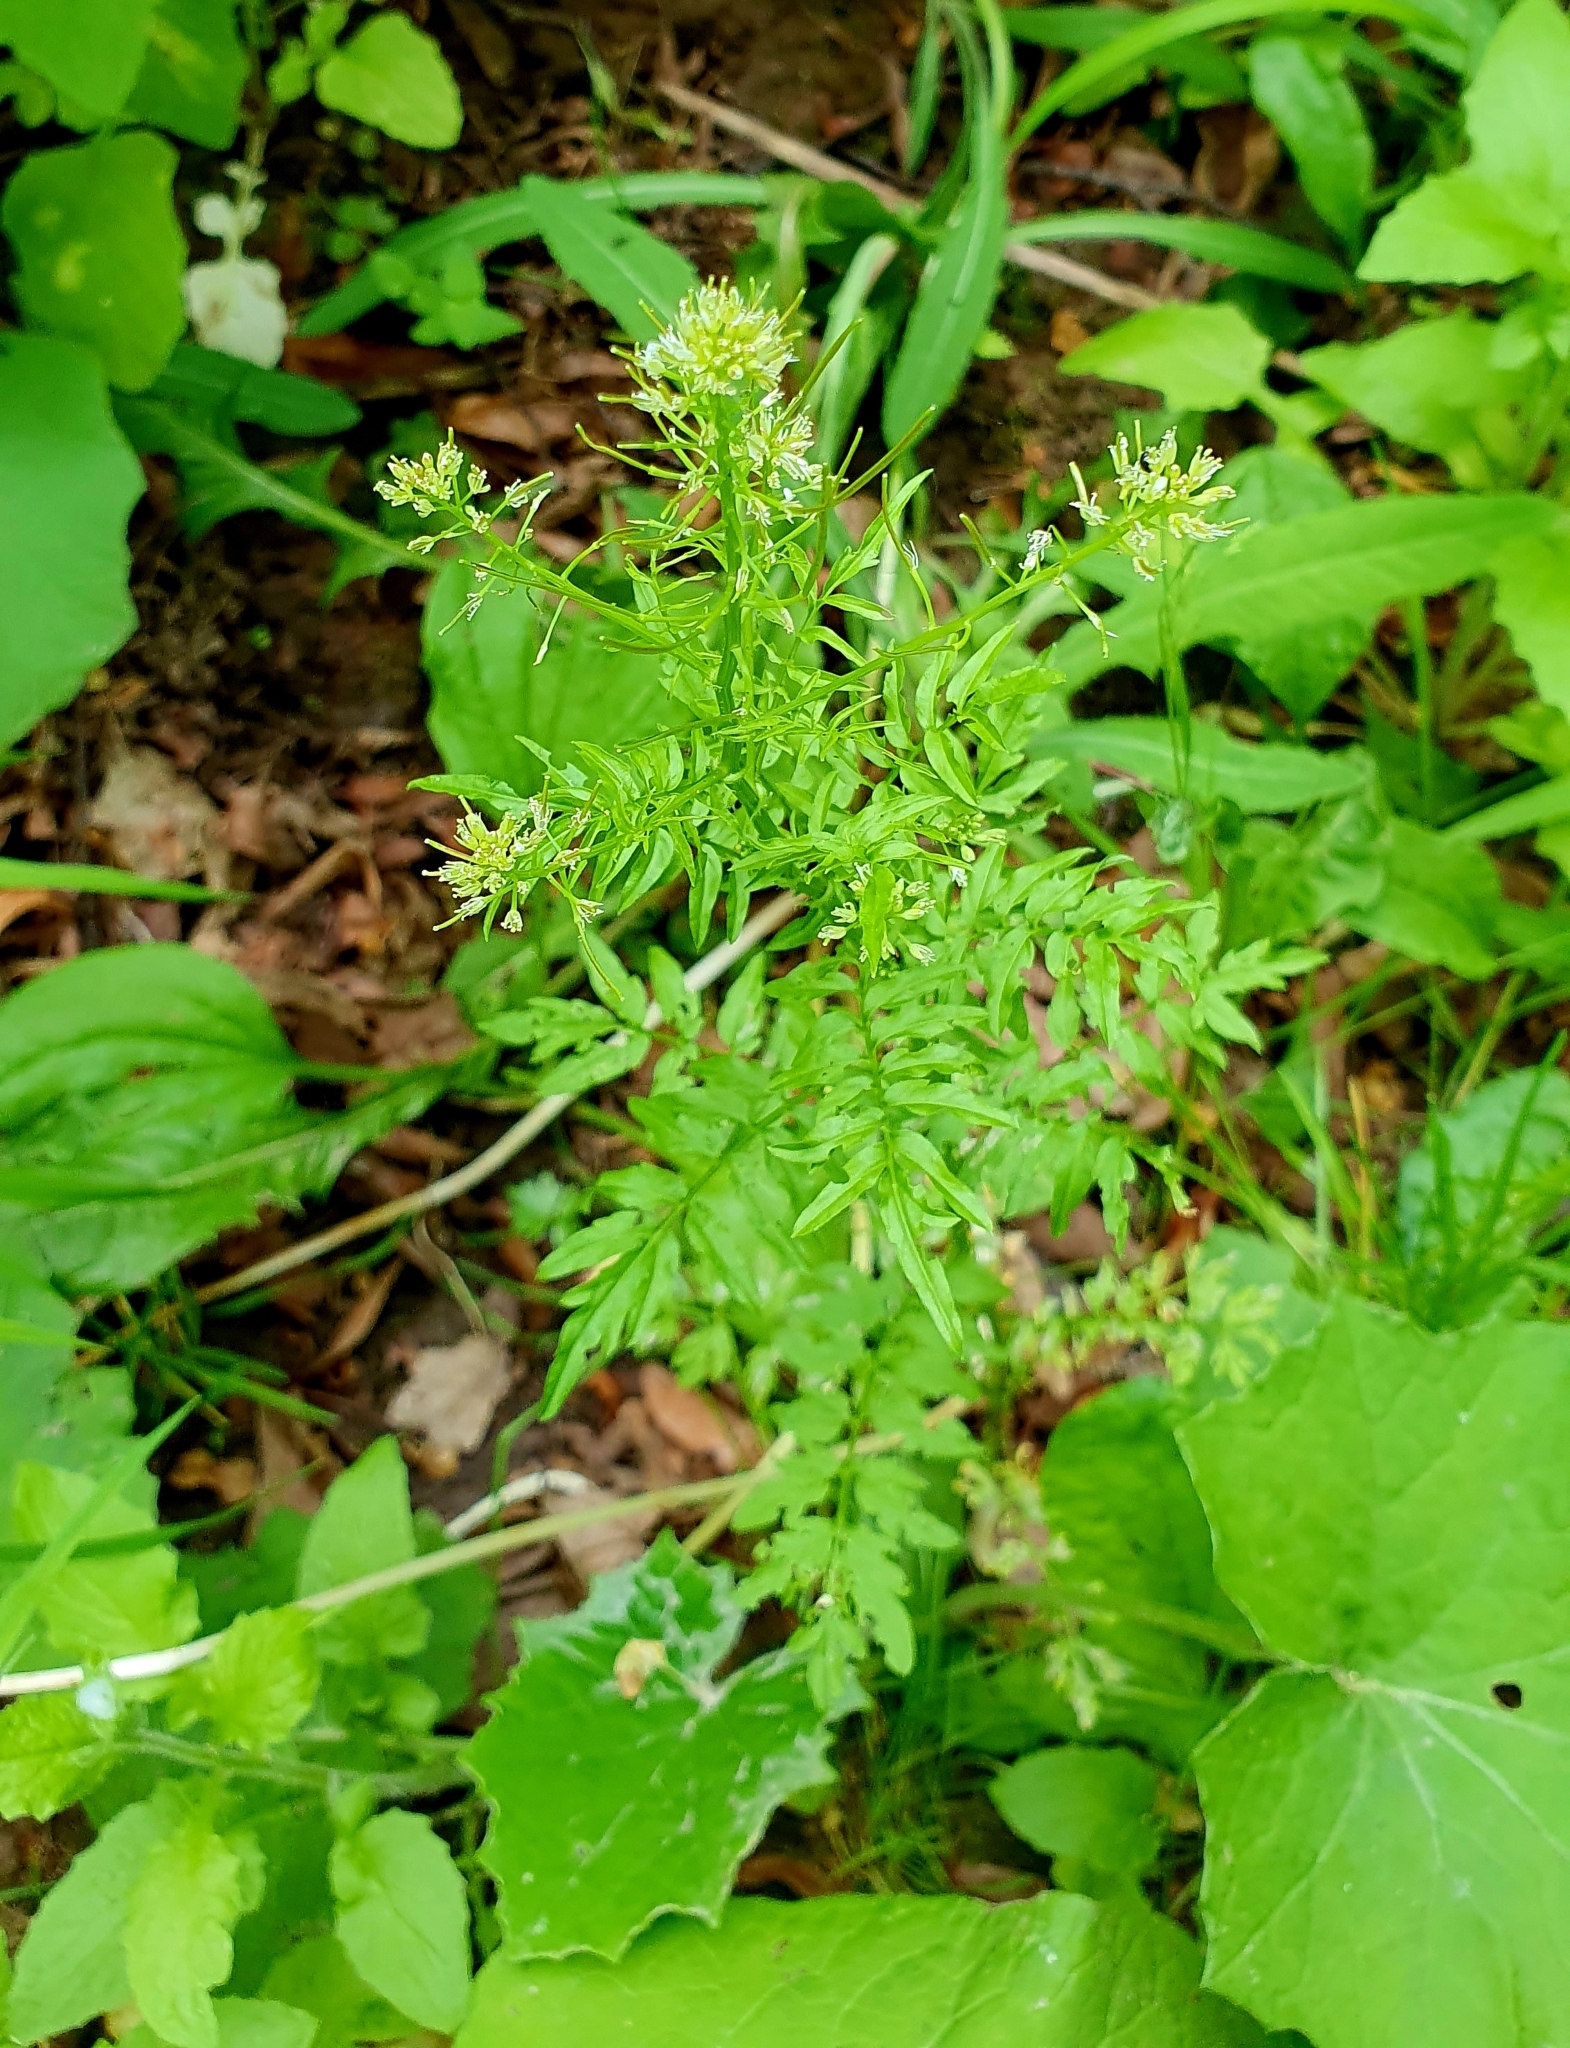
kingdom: Plantae
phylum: Tracheophyta
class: Magnoliopsida
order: Brassicales
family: Brassicaceae
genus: Cardamine
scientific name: Cardamine impatiens
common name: Narrow-leaved bitter-cress
